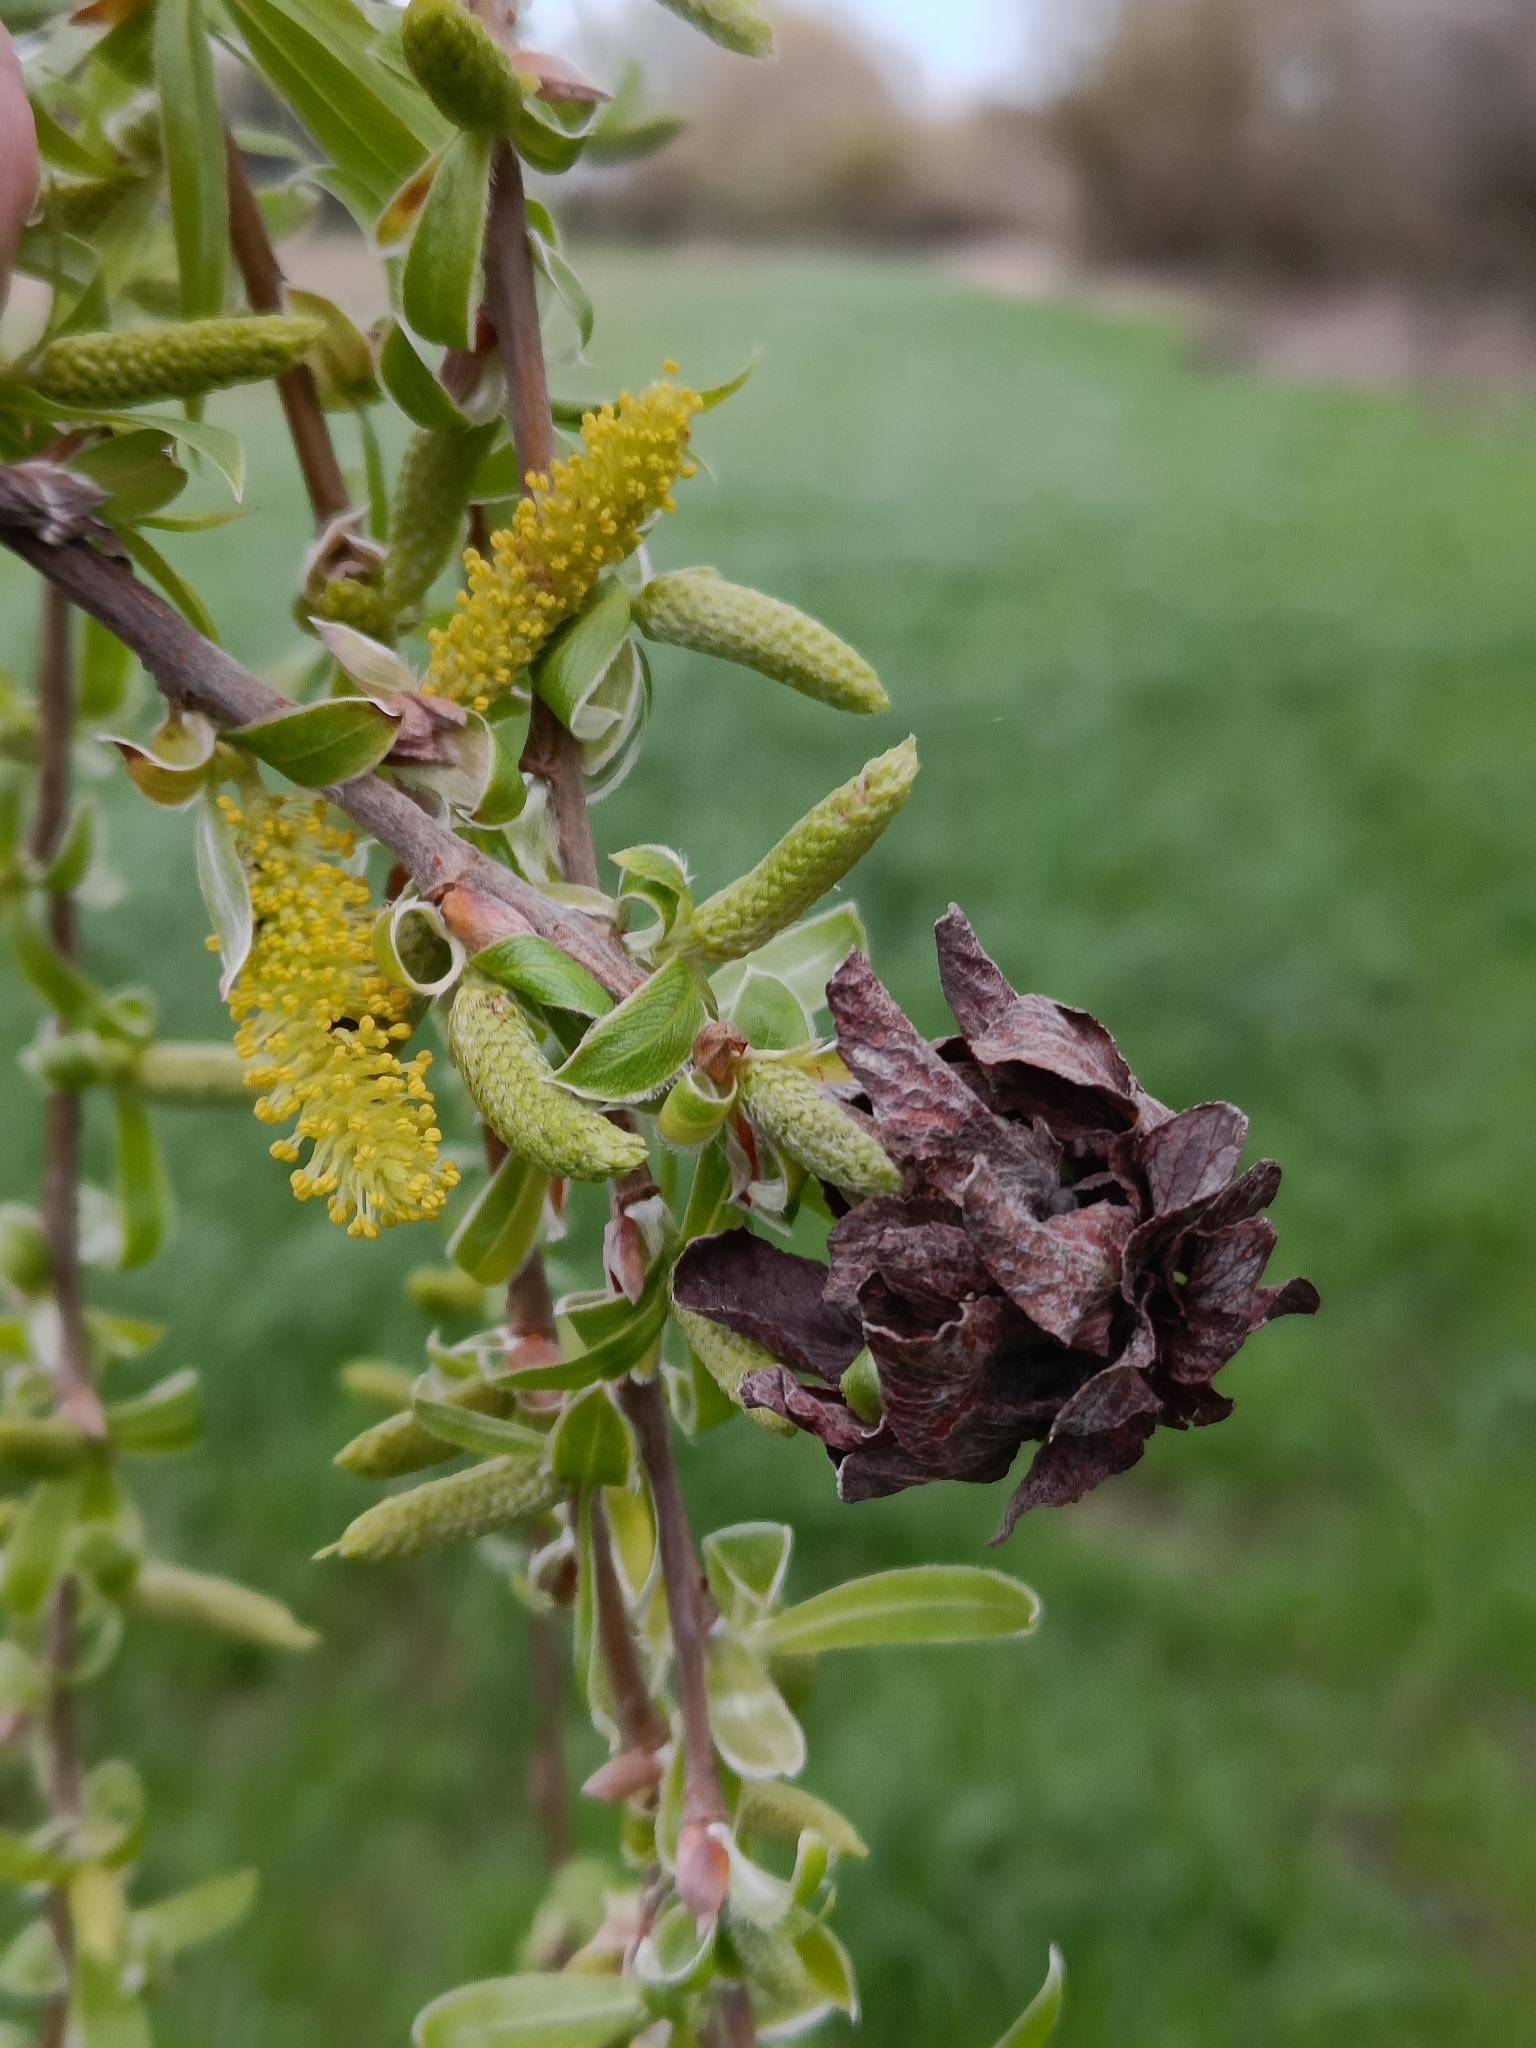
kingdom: Animalia
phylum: Arthropoda
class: Insecta
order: Diptera
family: Cecidomyiidae
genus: Rabdophaga
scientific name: Rabdophaga rosaria
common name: Willow rose gall midge
